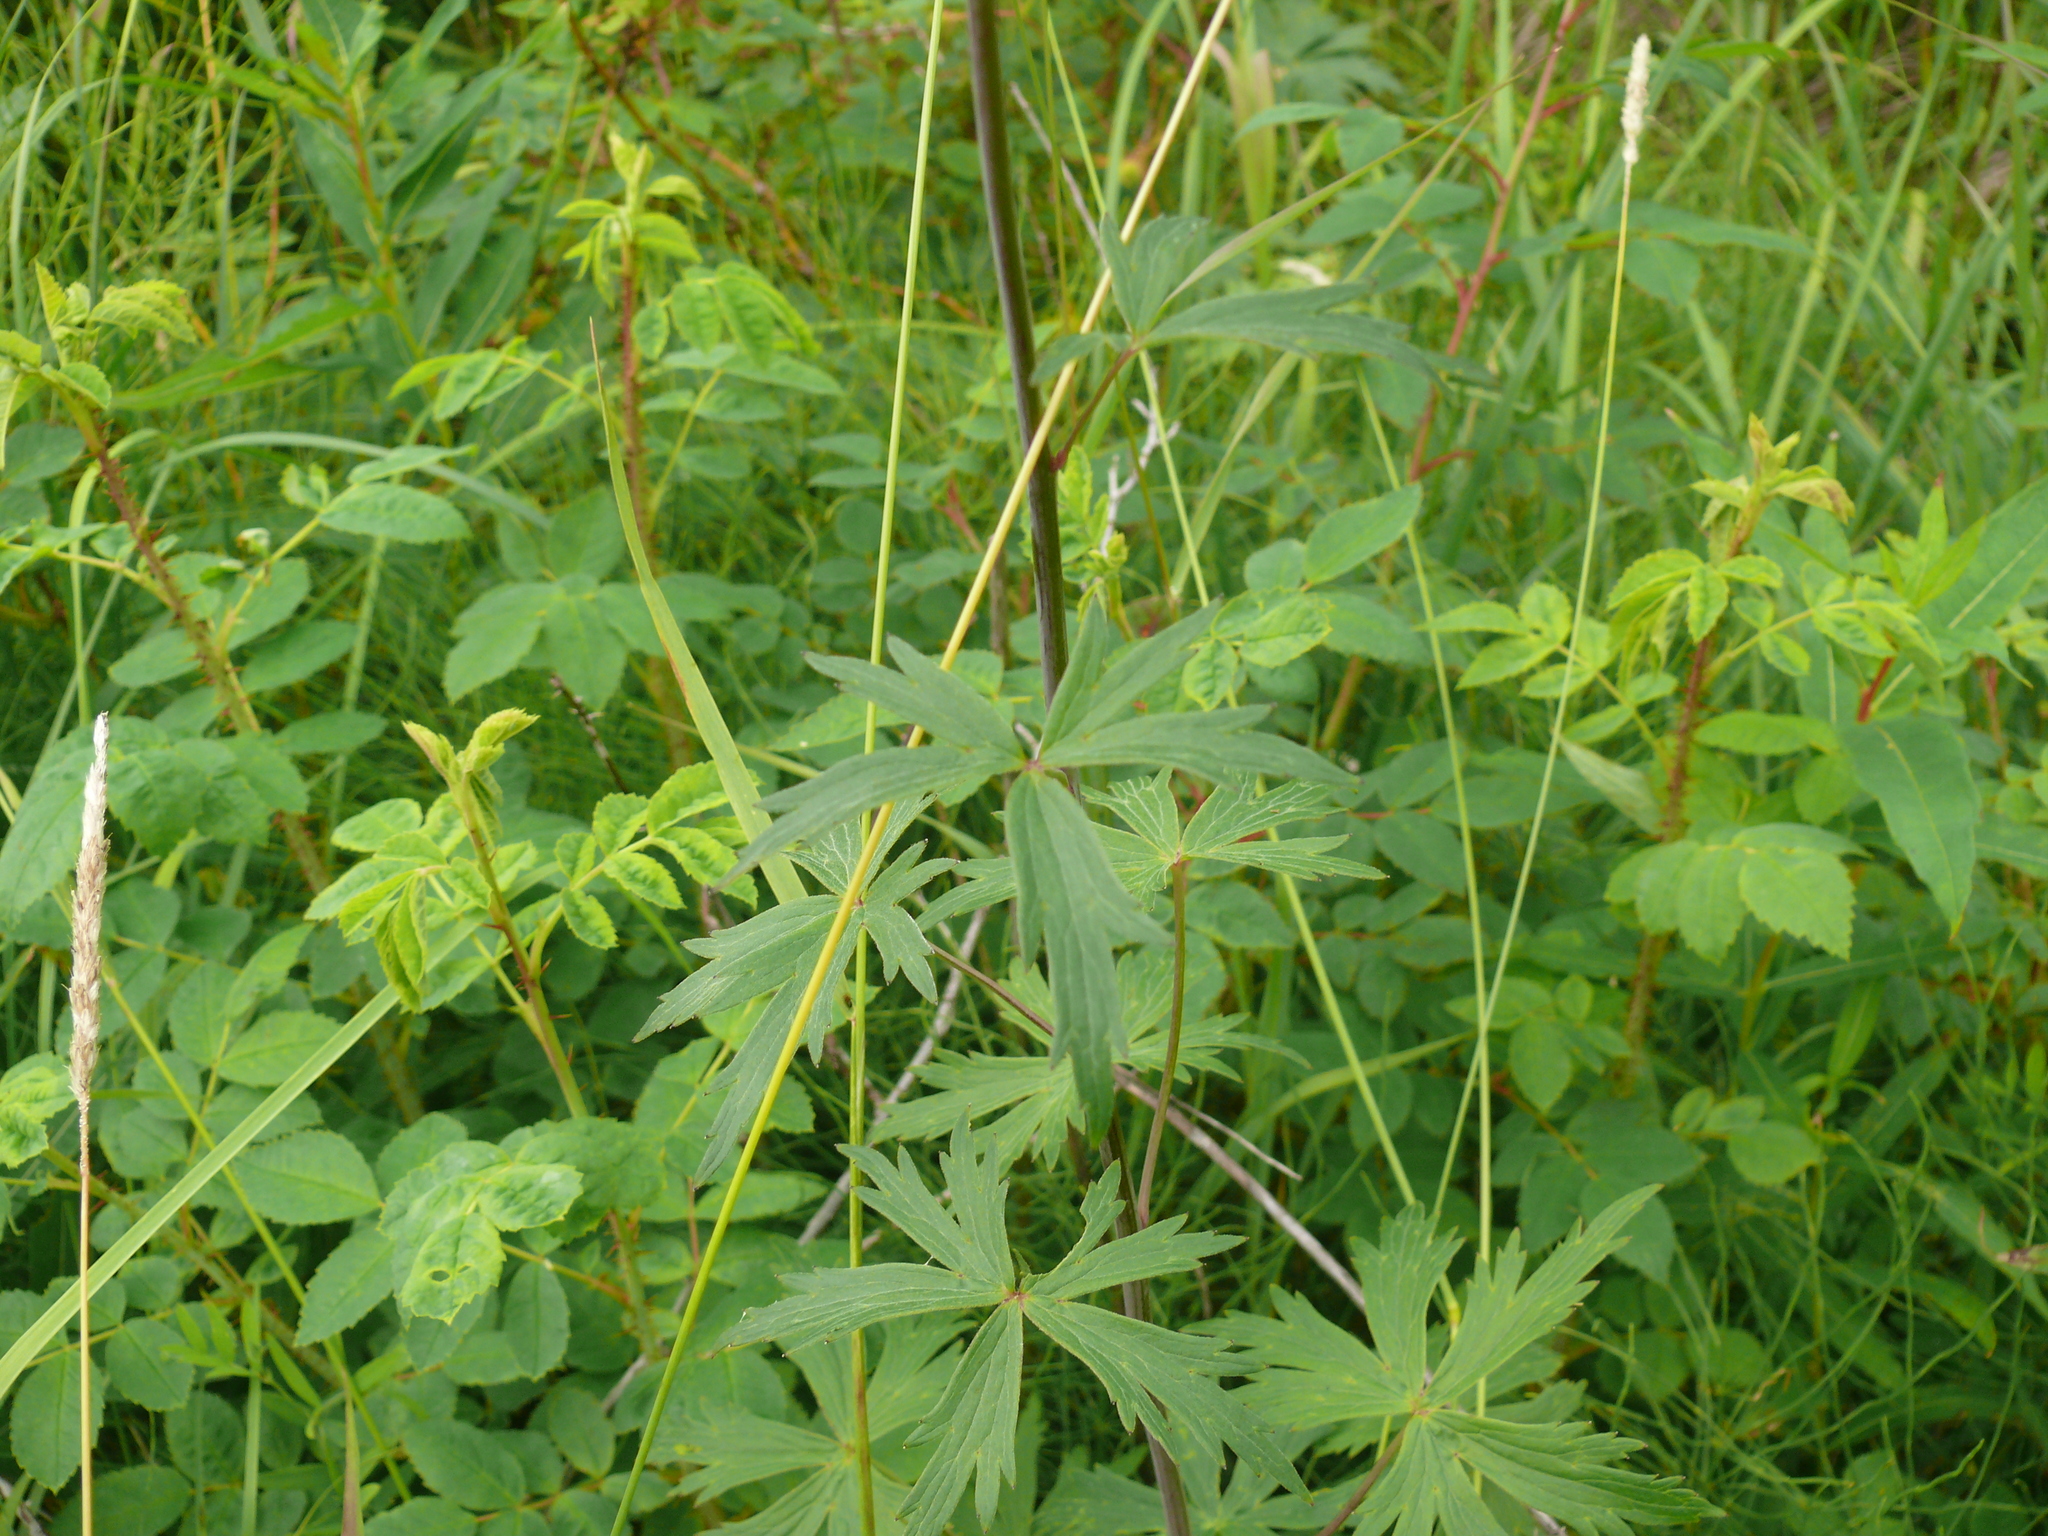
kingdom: Plantae
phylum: Tracheophyta
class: Magnoliopsida
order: Ranunculales
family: Ranunculaceae
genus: Delphinium
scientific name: Delphinium glaucum
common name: Brown's larkspur
